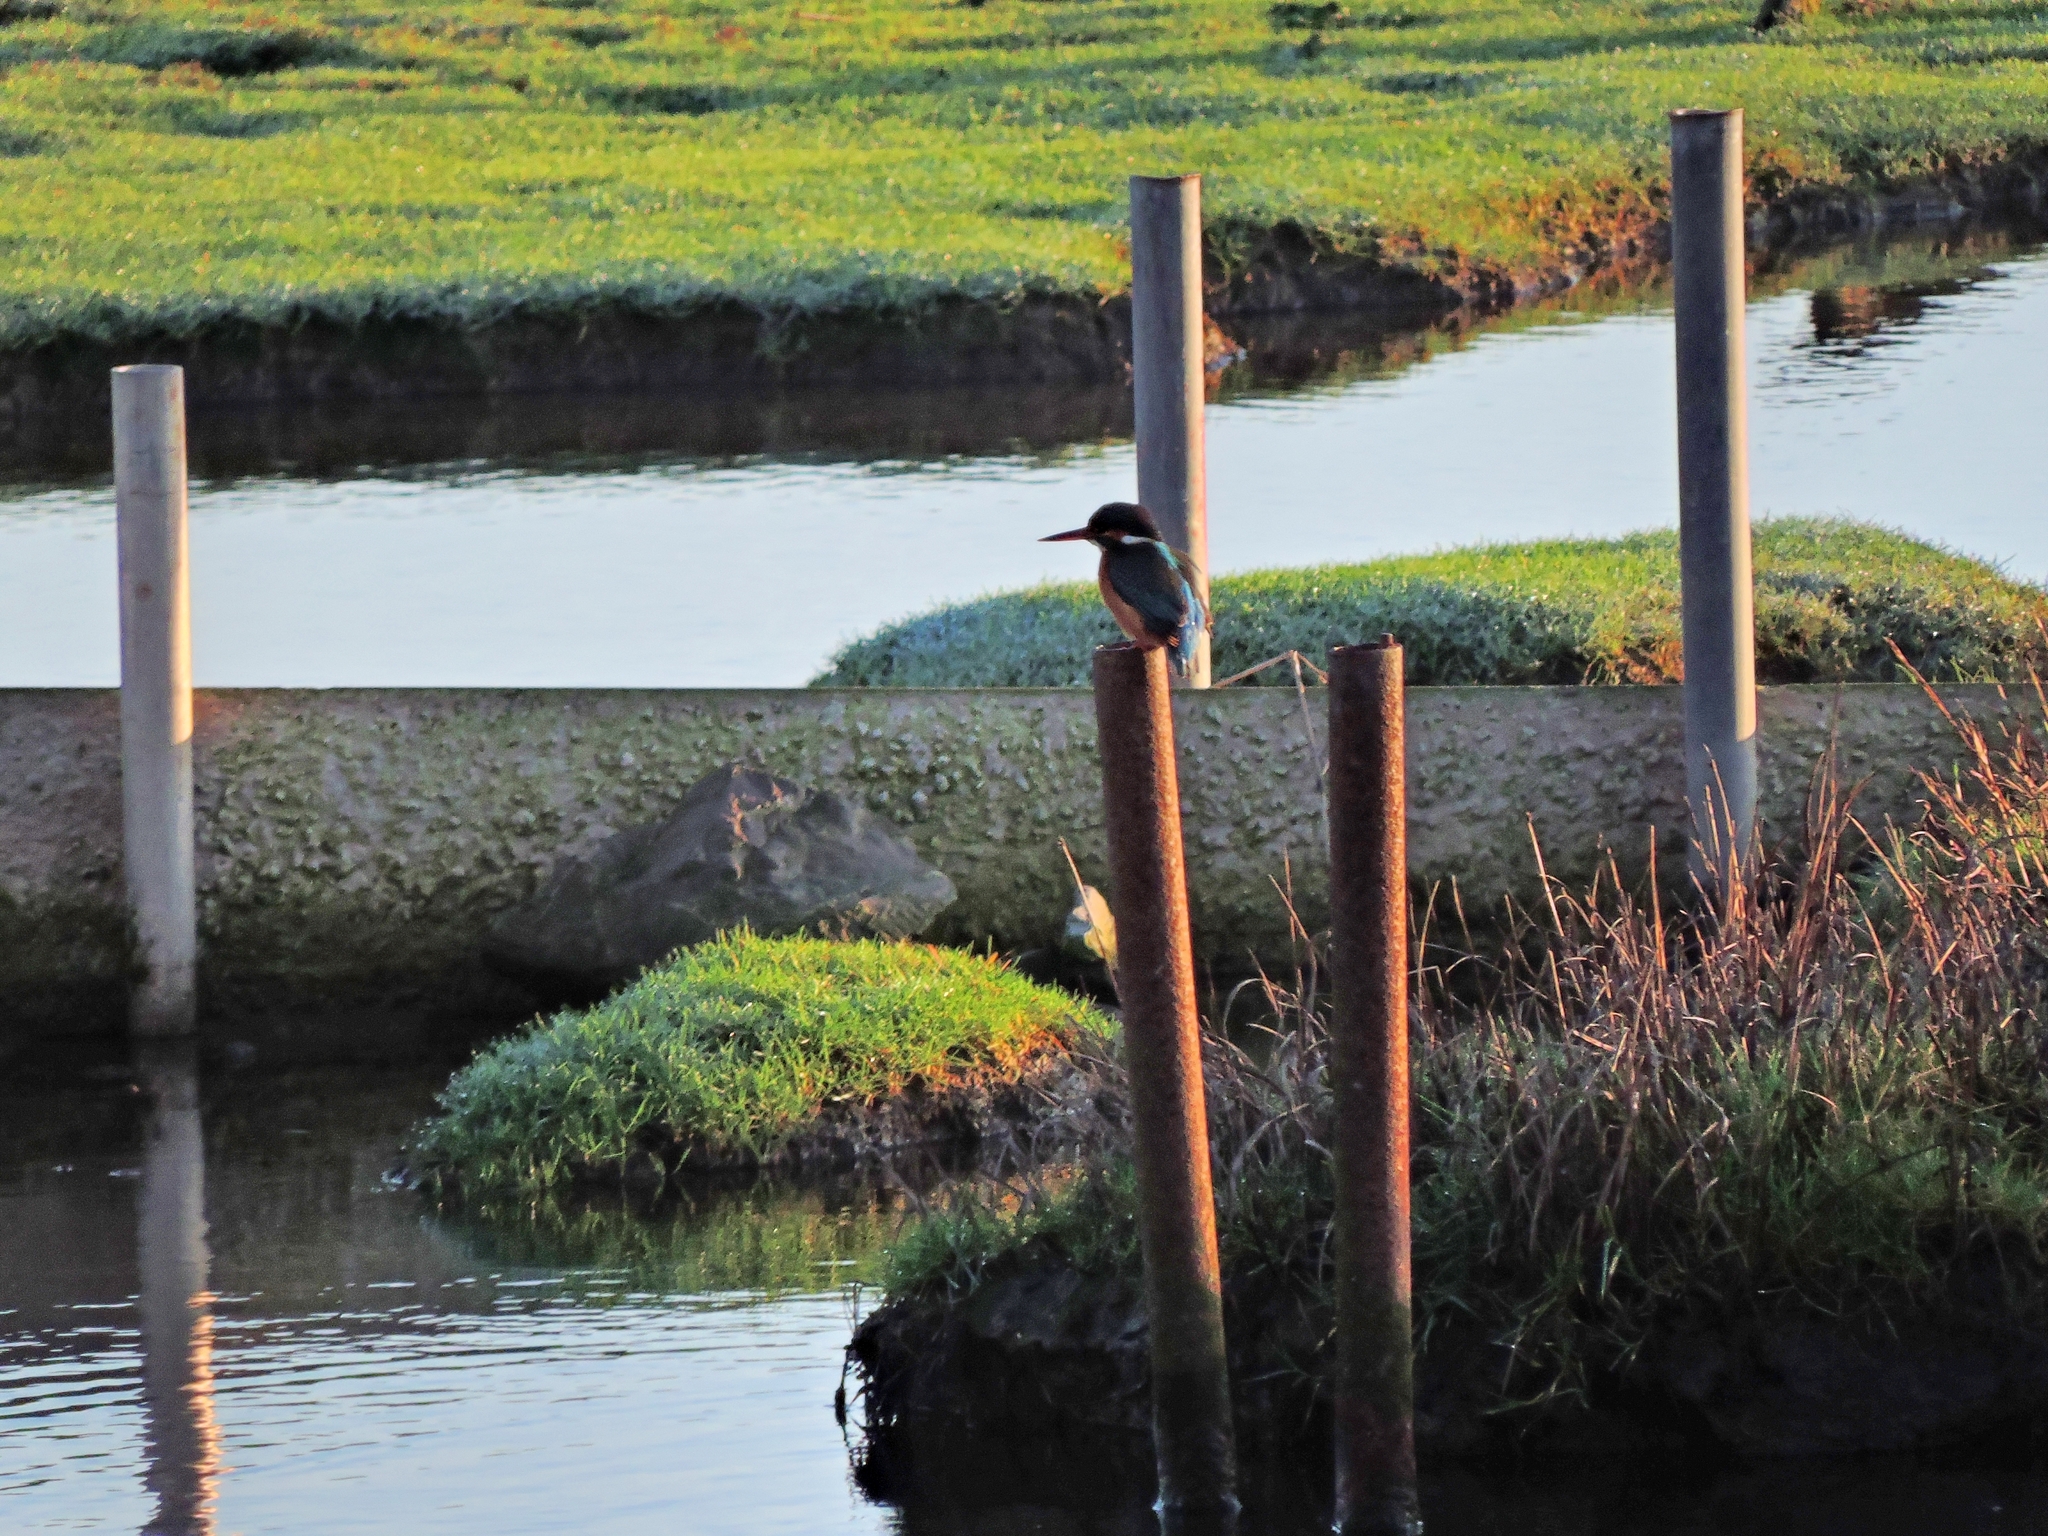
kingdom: Animalia
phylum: Chordata
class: Aves
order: Coraciiformes
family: Alcedinidae
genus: Alcedo
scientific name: Alcedo atthis
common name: Common kingfisher
